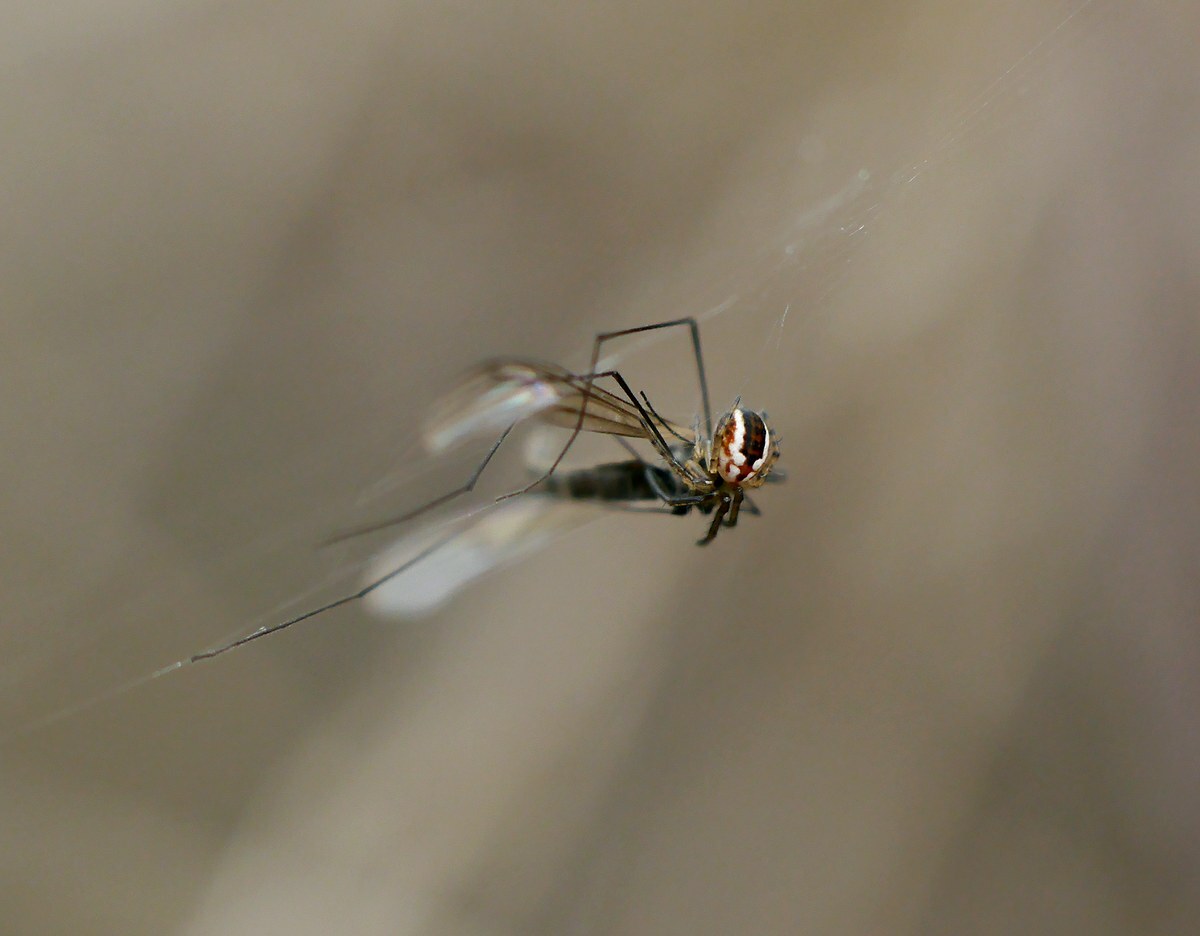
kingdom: Animalia
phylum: Arthropoda
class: Arachnida
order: Araneae
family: Araneidae
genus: Mangora
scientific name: Mangora acalypha
